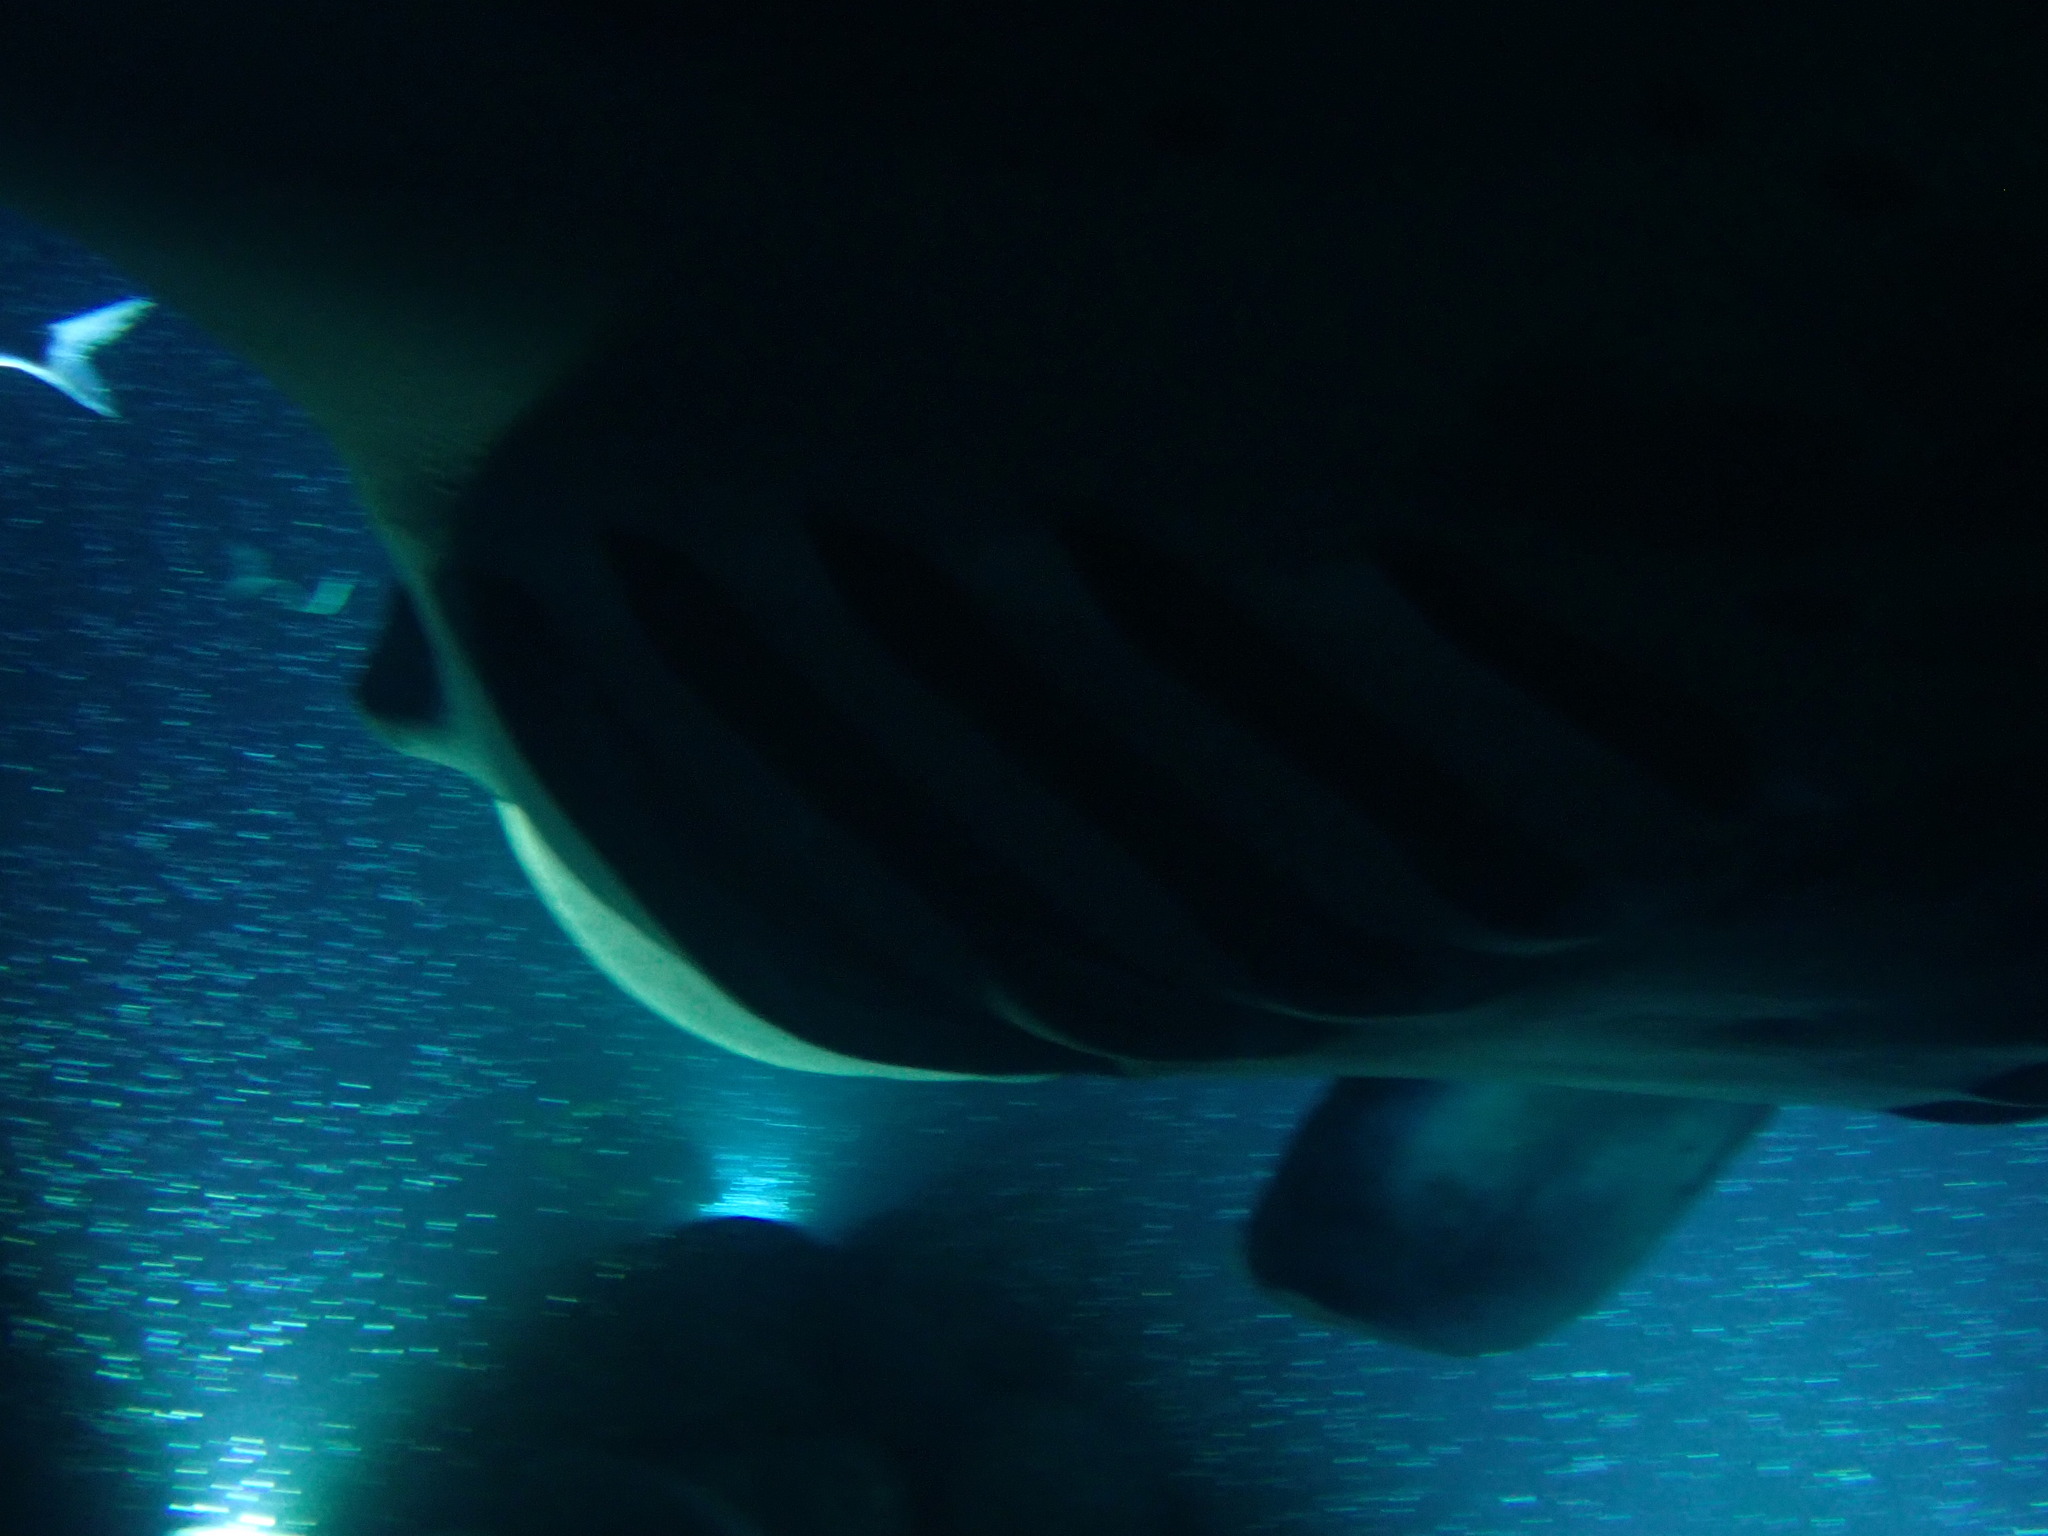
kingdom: Animalia
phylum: Chordata
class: Elasmobranchii
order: Myliobatiformes
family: Myliobatidae
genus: Mobula
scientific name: Mobula alfredi
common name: Reef manta ray
